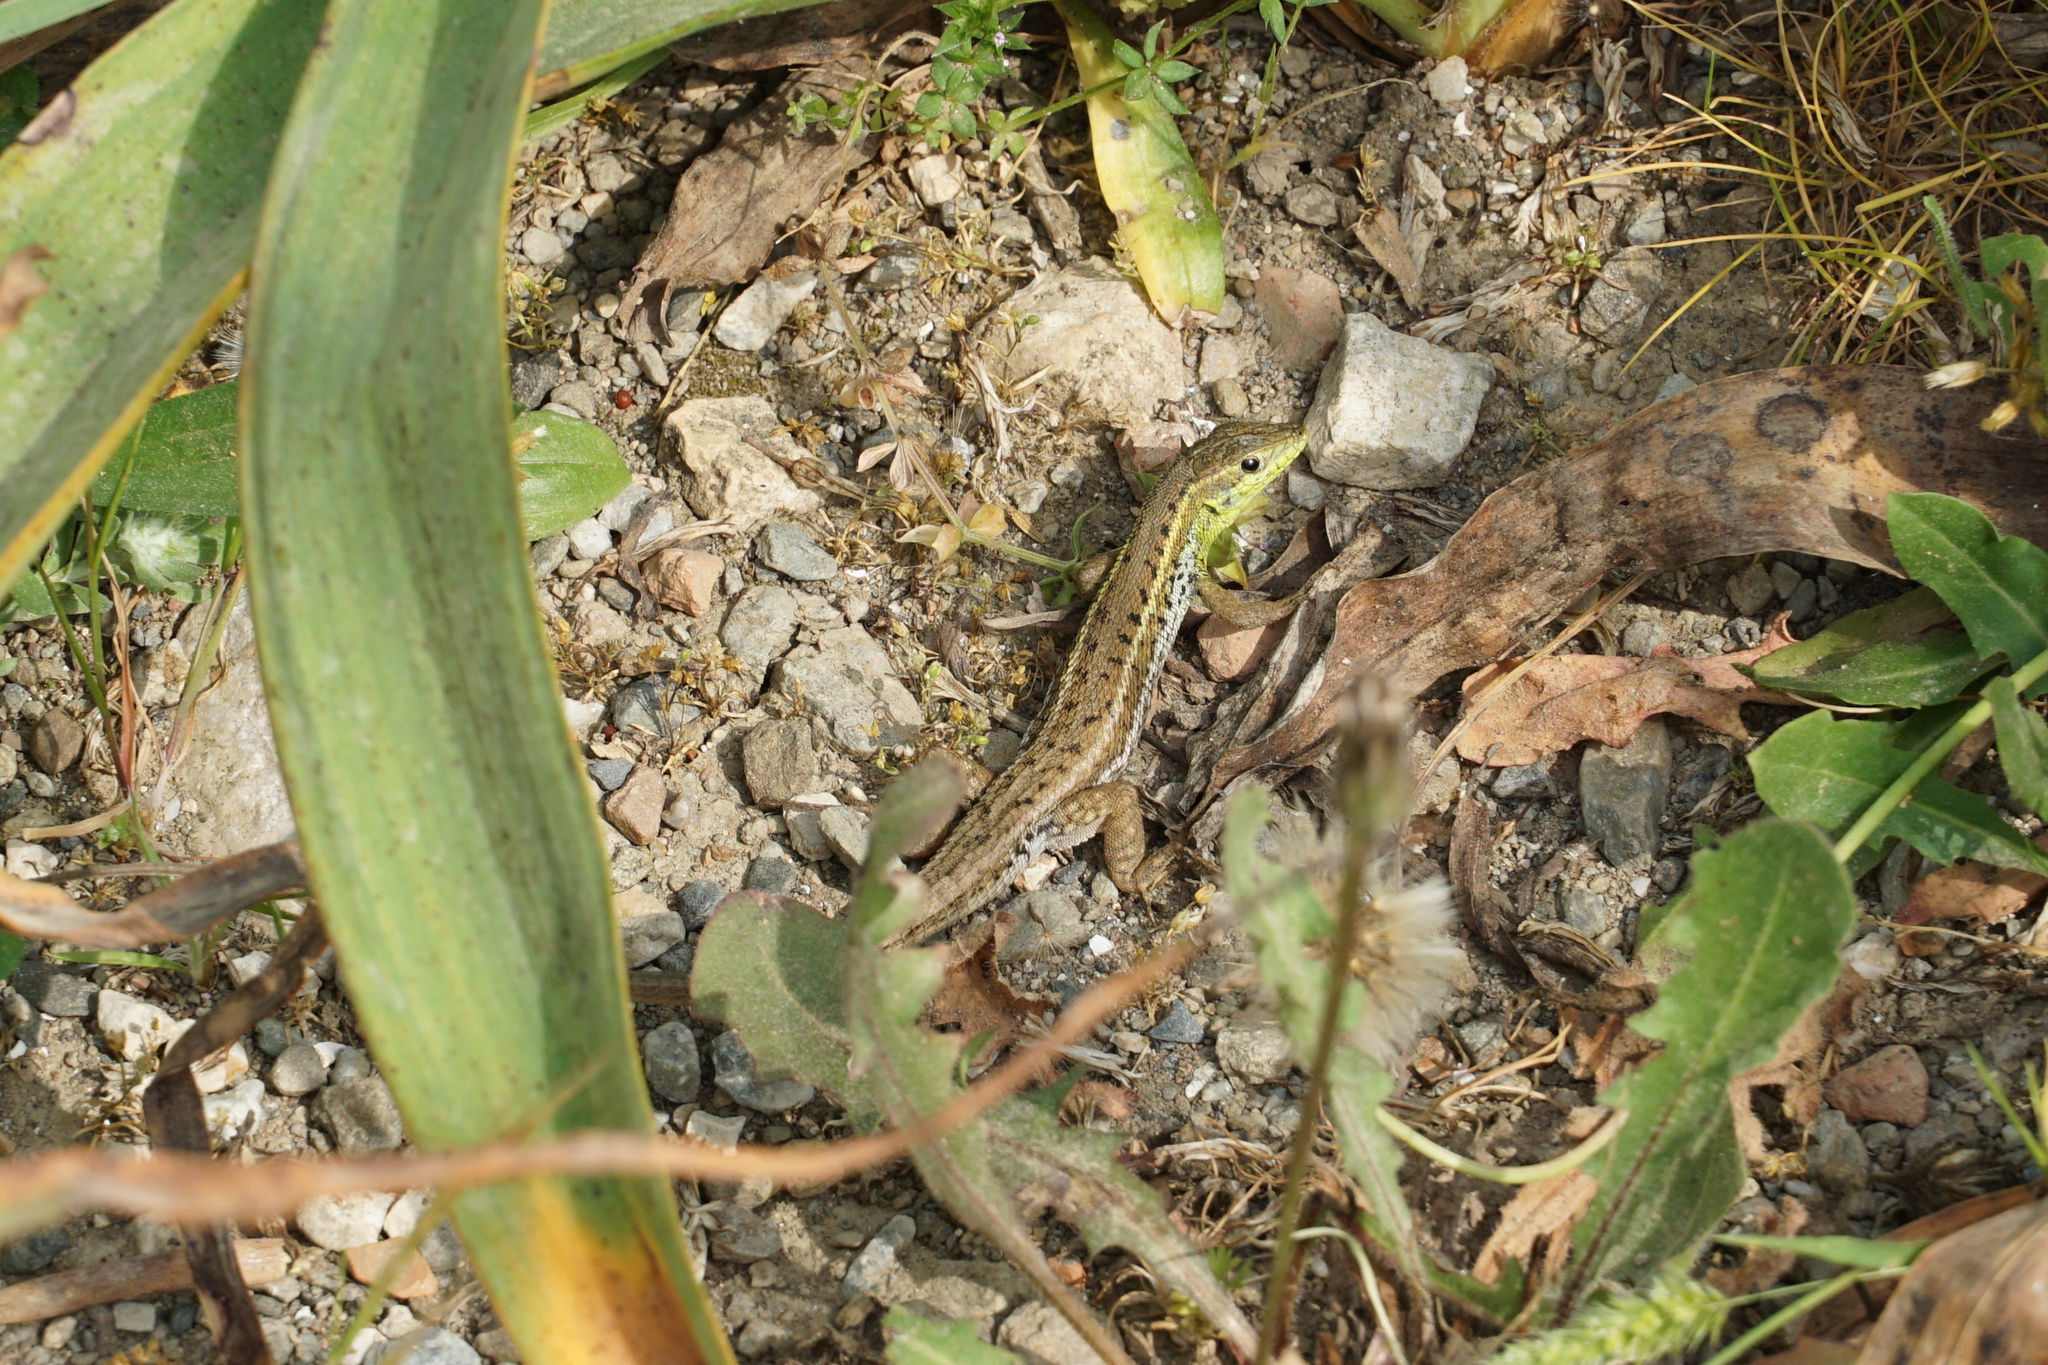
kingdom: Animalia
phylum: Chordata
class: Squamata
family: Lacertidae
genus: Ophisops
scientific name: Ophisops elegans
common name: Snake-eyed lizard
